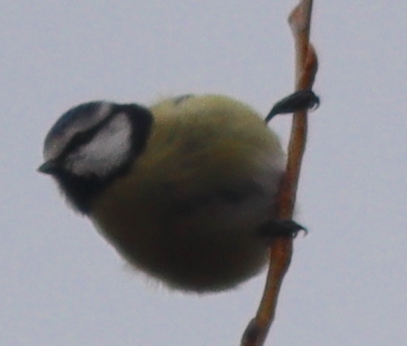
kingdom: Animalia
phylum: Chordata
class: Aves
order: Passeriformes
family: Paridae
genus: Cyanistes
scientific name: Cyanistes caeruleus
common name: Eurasian blue tit
